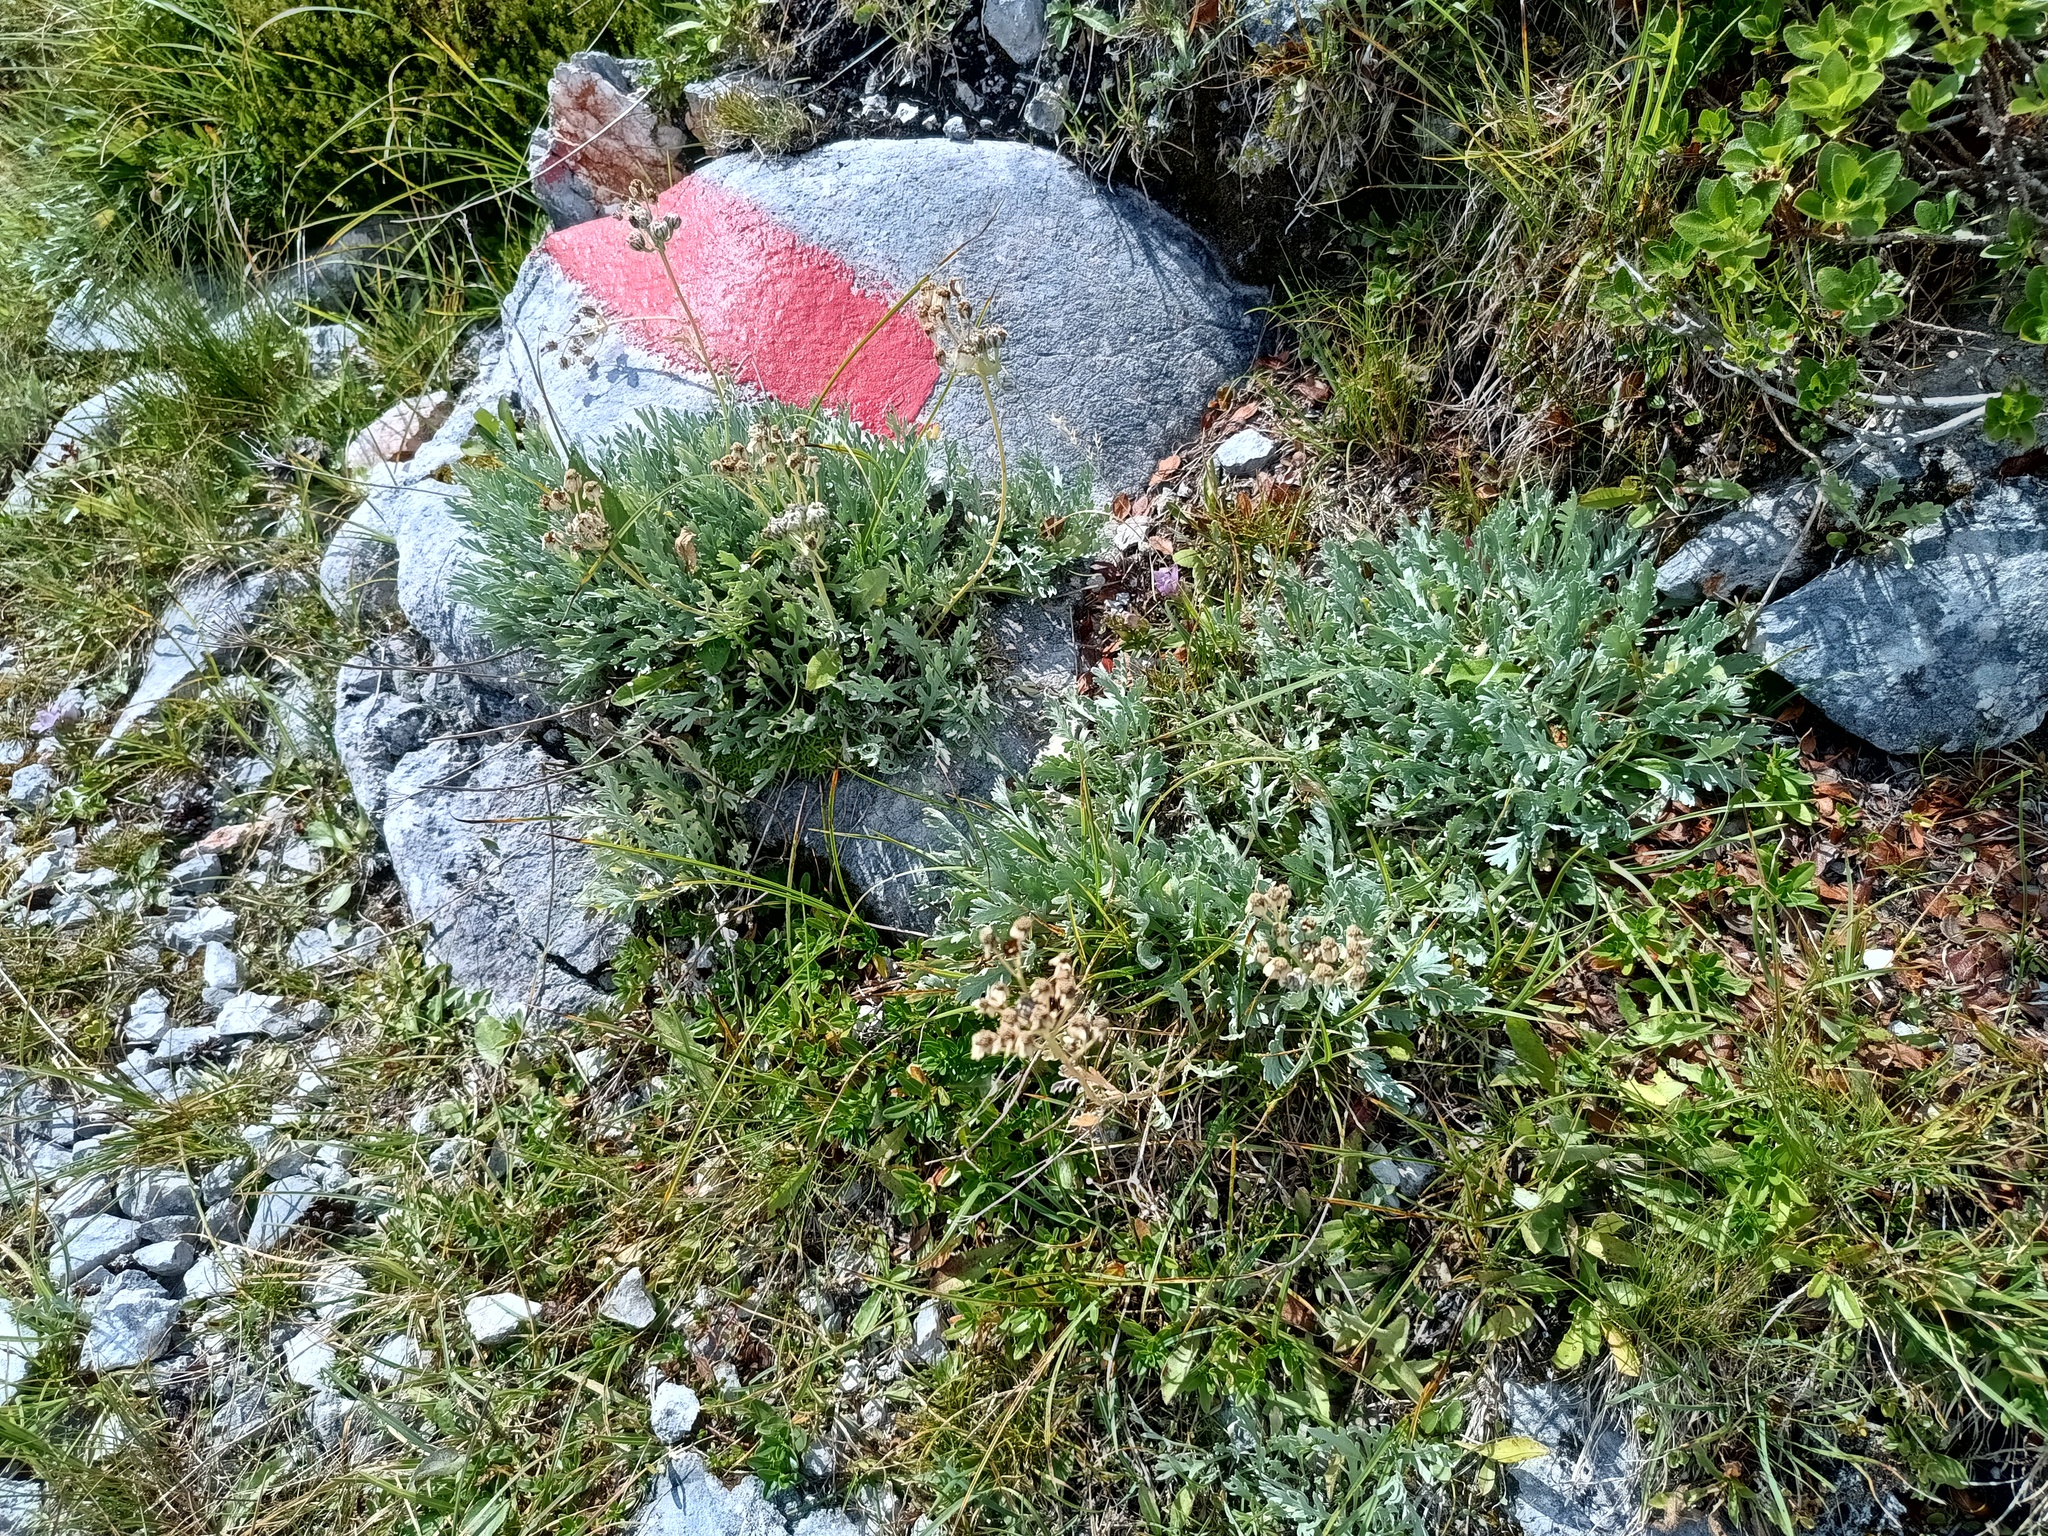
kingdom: Plantae
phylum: Tracheophyta
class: Magnoliopsida
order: Asterales
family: Asteraceae
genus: Achillea
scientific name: Achillea clavennae
